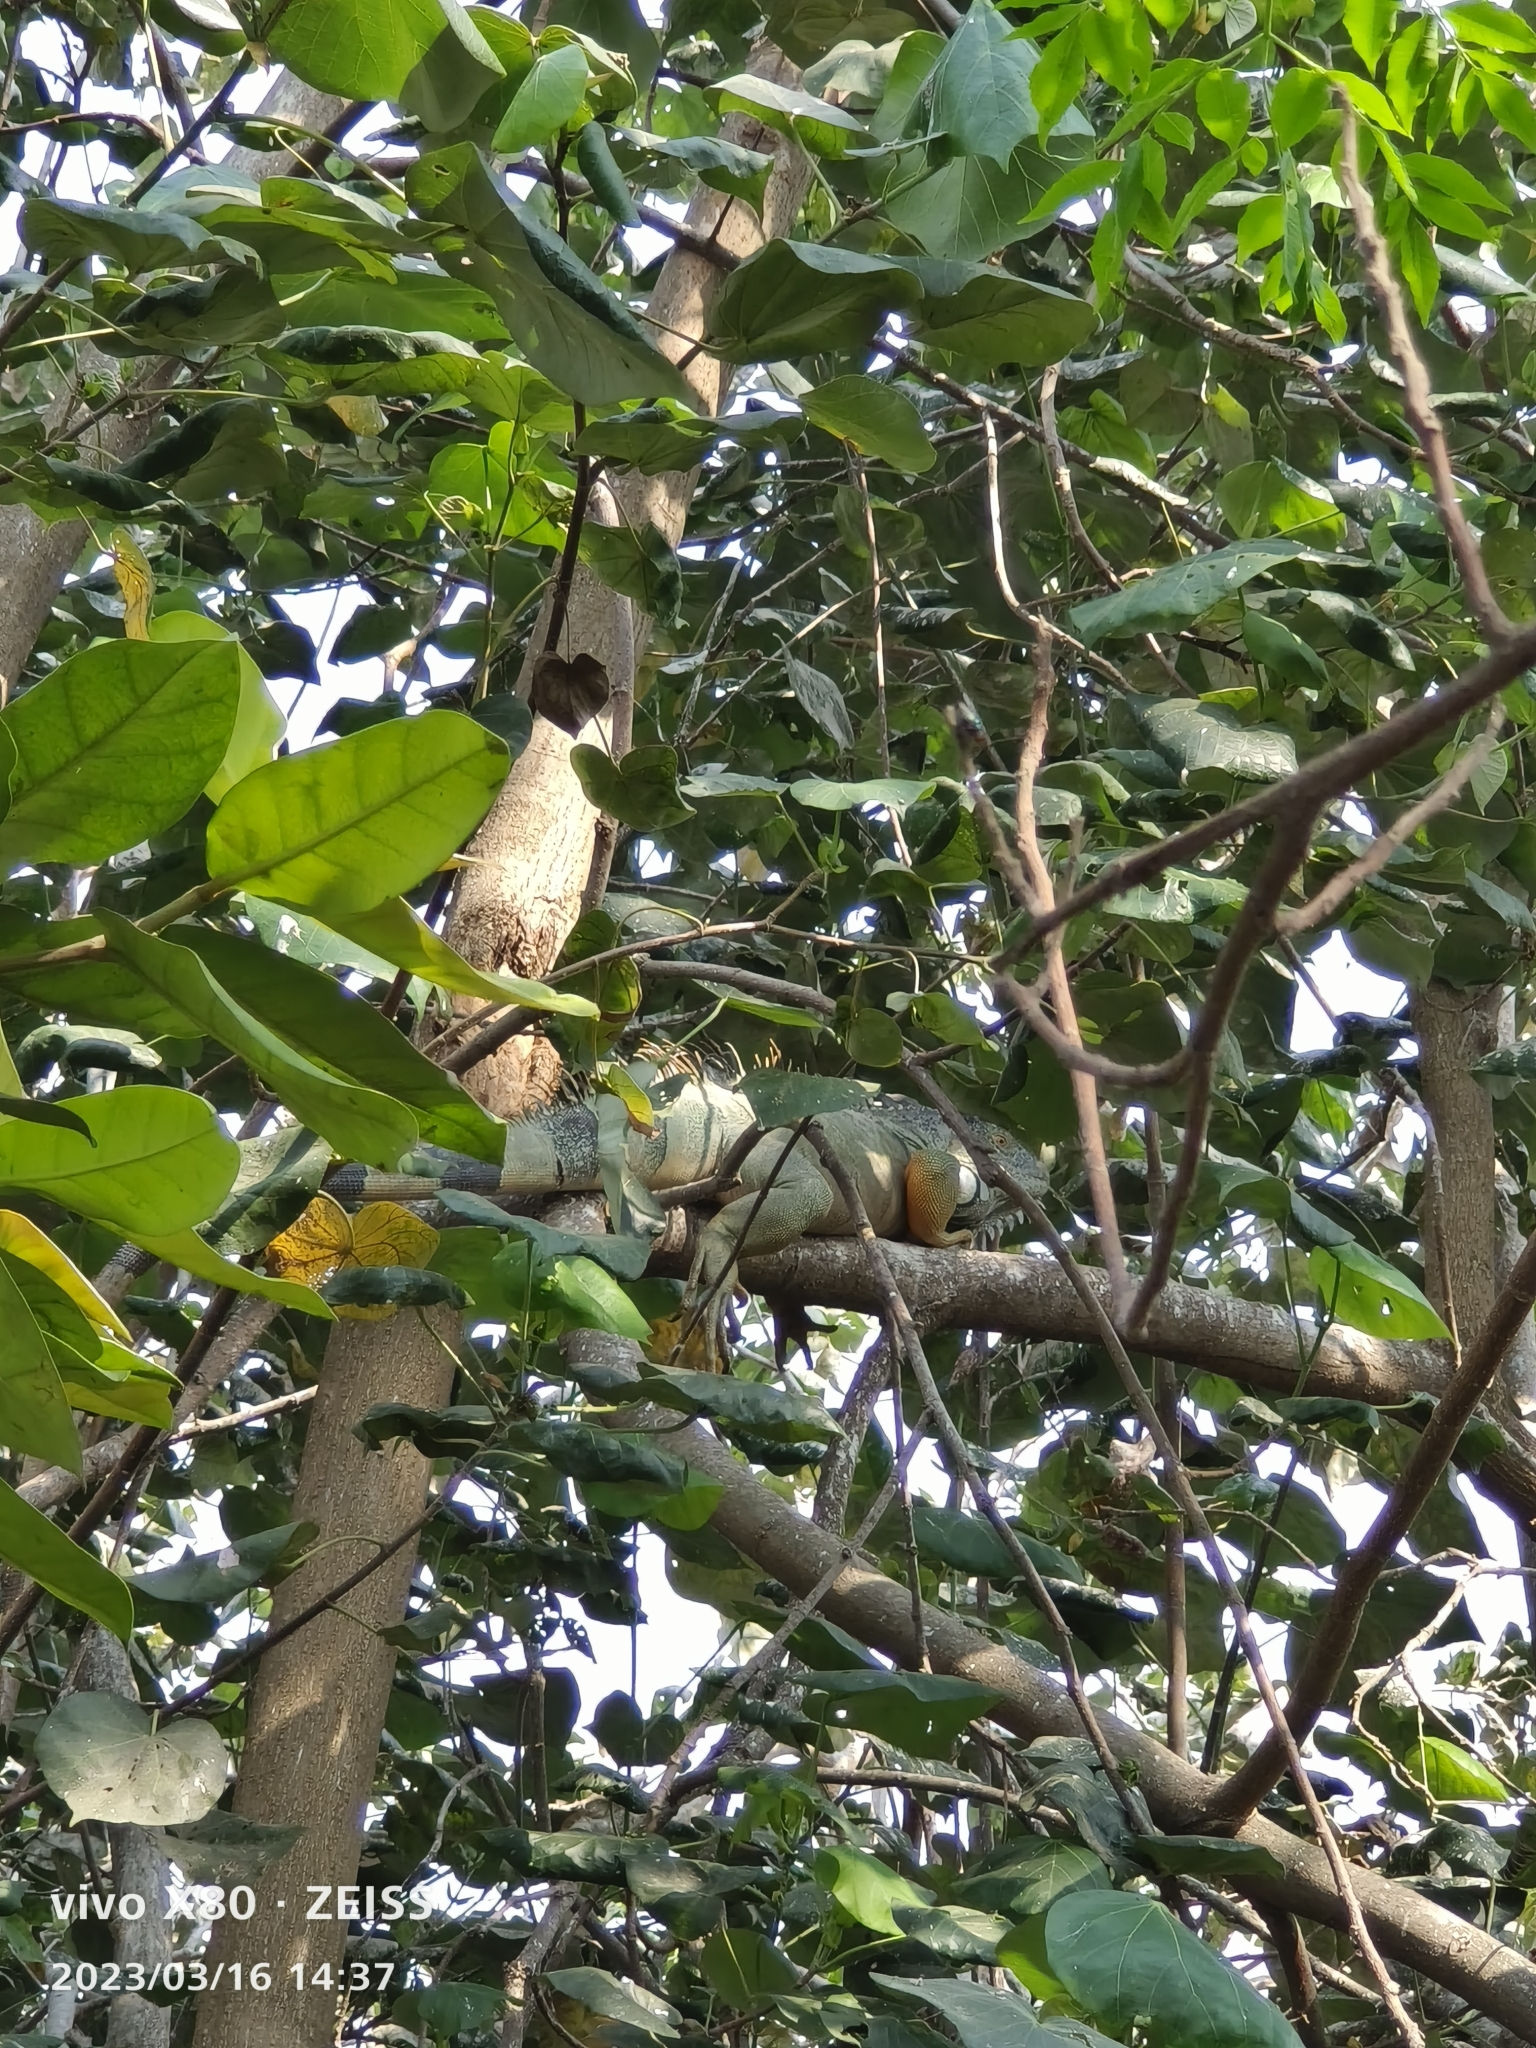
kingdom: Animalia
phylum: Chordata
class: Squamata
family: Iguanidae
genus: Iguana
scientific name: Iguana iguana
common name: Green iguana
